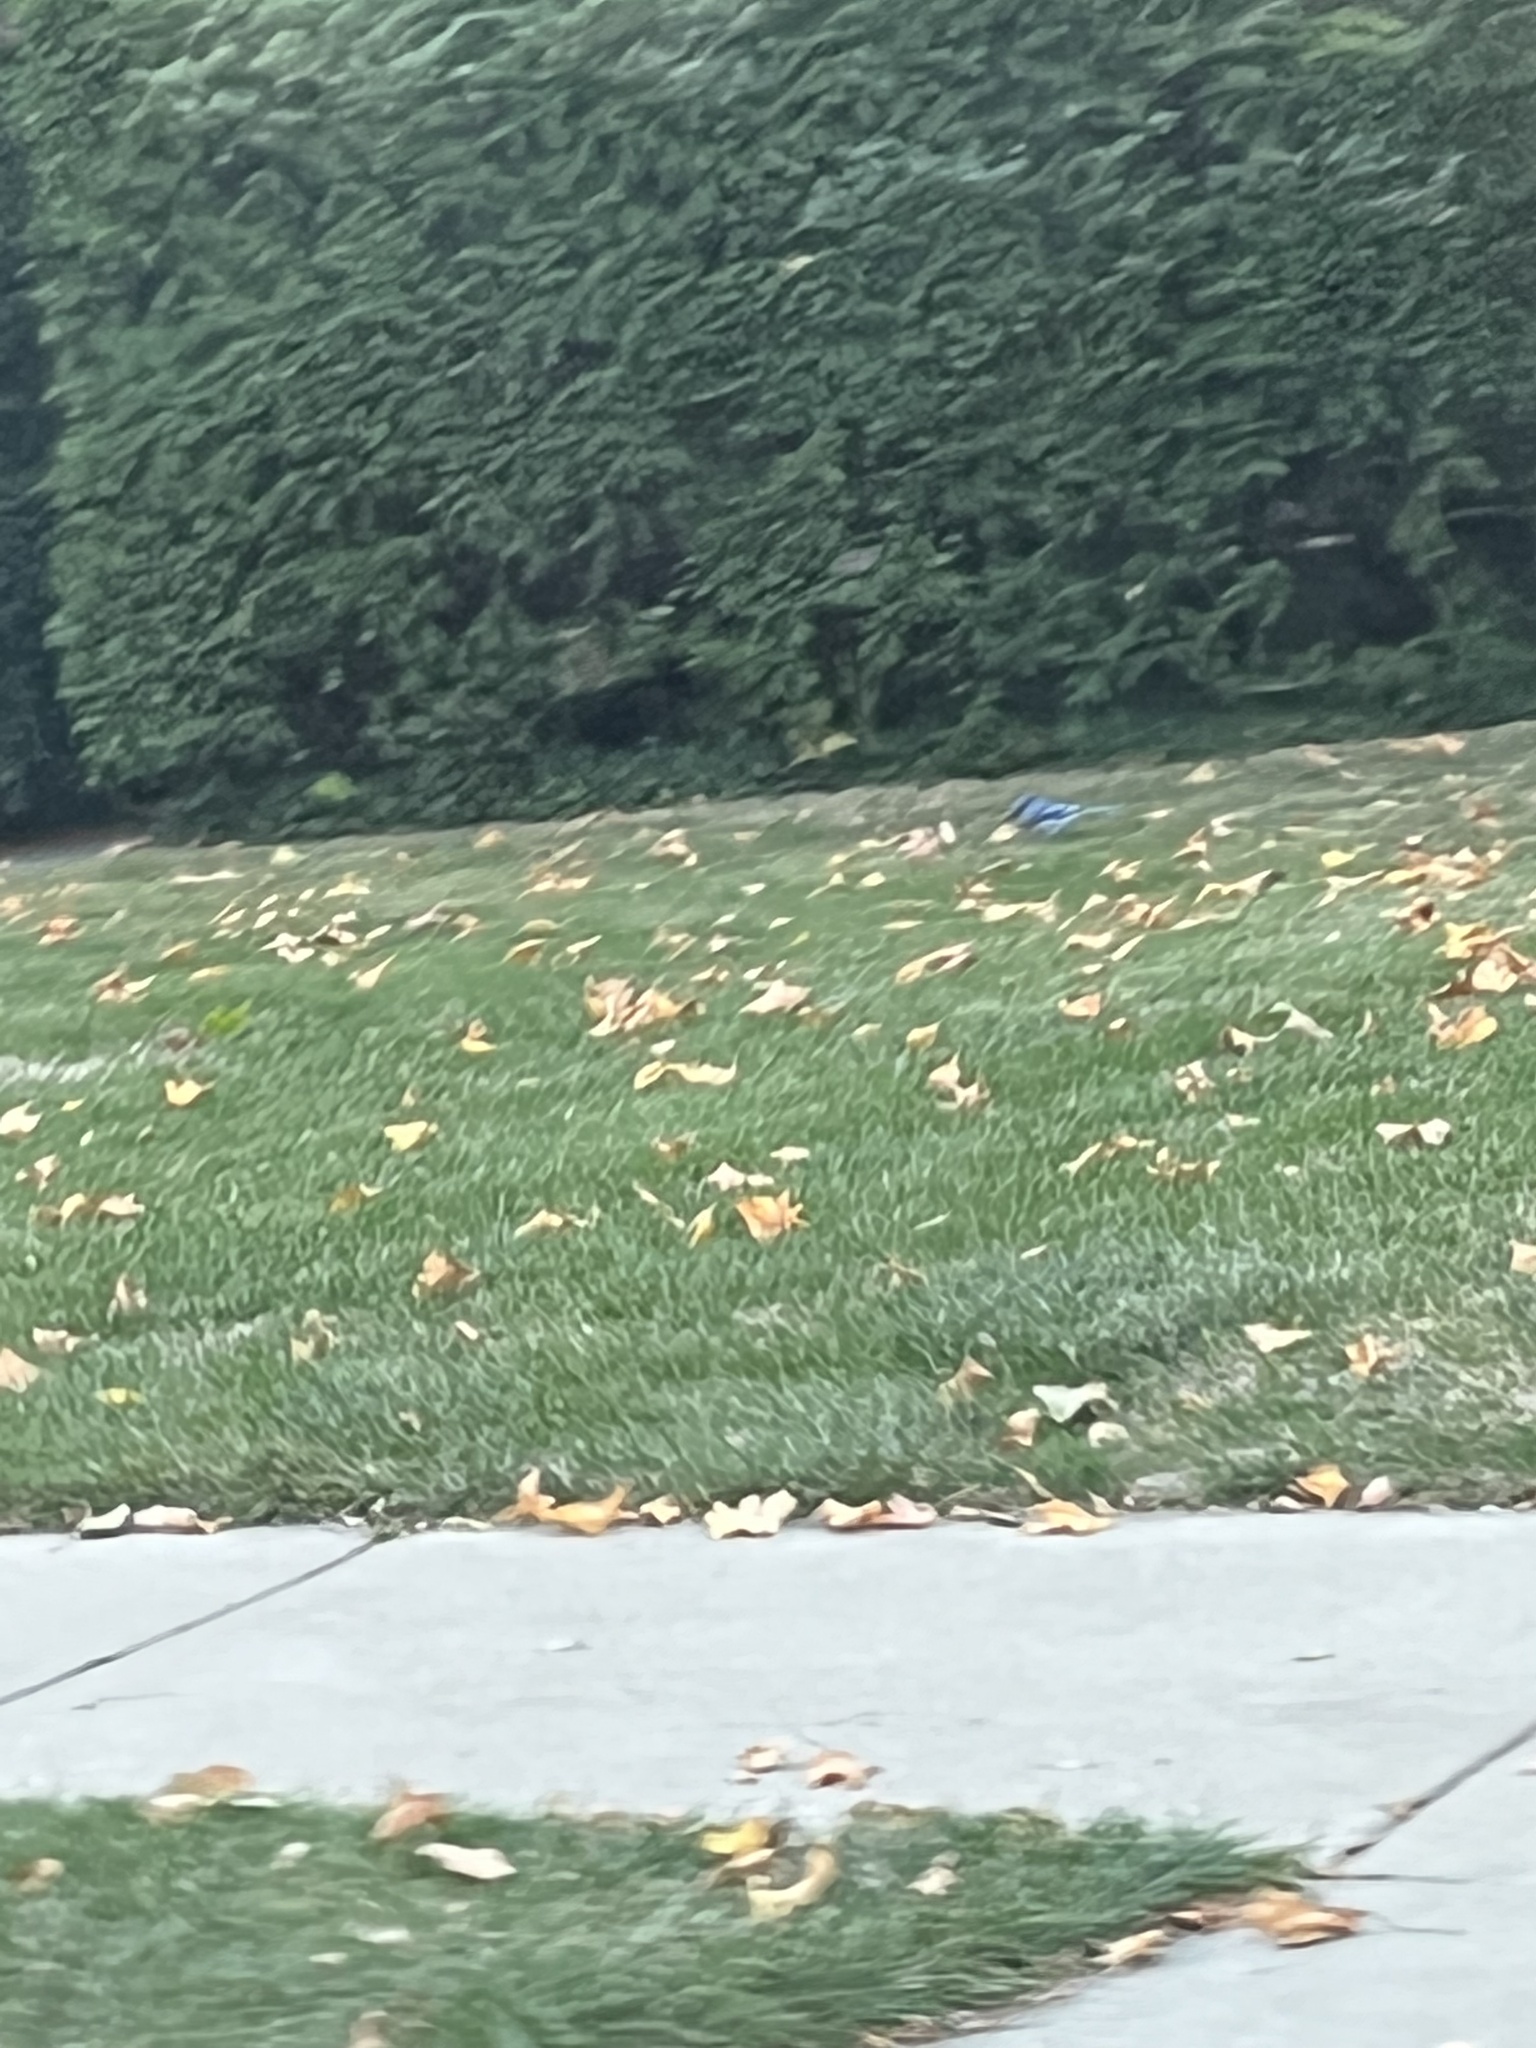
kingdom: Animalia
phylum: Chordata
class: Aves
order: Passeriformes
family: Corvidae
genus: Cyanocitta
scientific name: Cyanocitta cristata
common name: Blue jay
